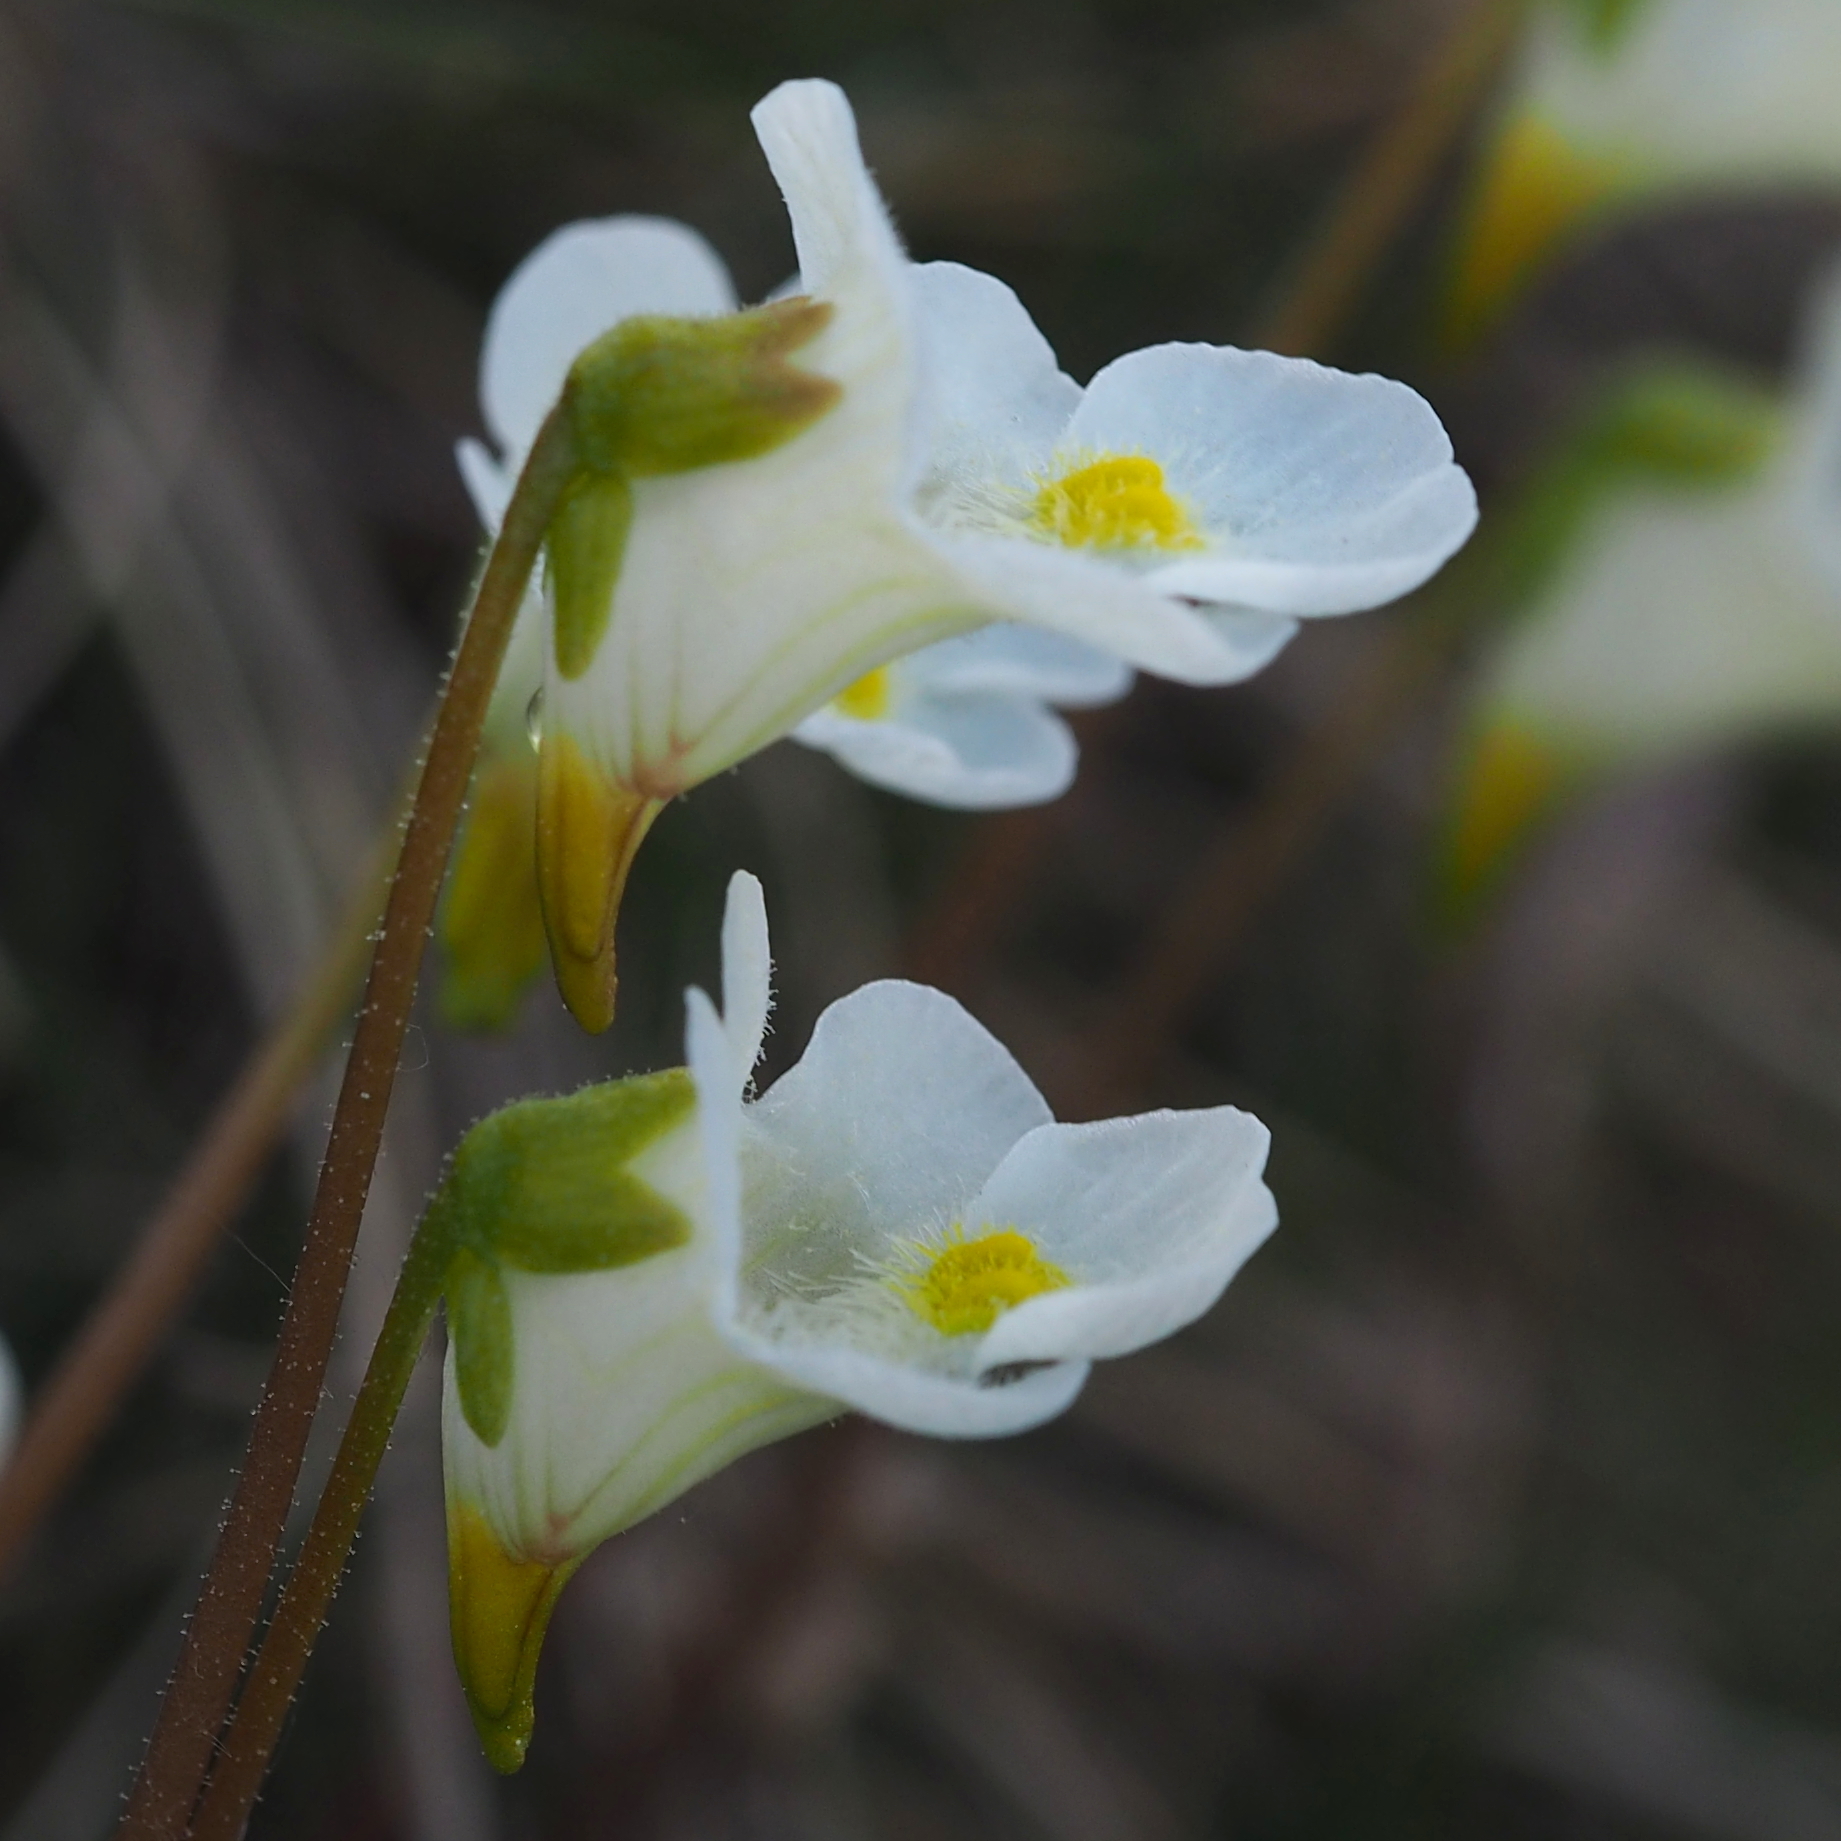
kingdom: Plantae
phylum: Tracheophyta
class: Magnoliopsida
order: Lamiales
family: Lentibulariaceae
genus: Pinguicula
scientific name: Pinguicula alpina
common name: Alpine butterwort
